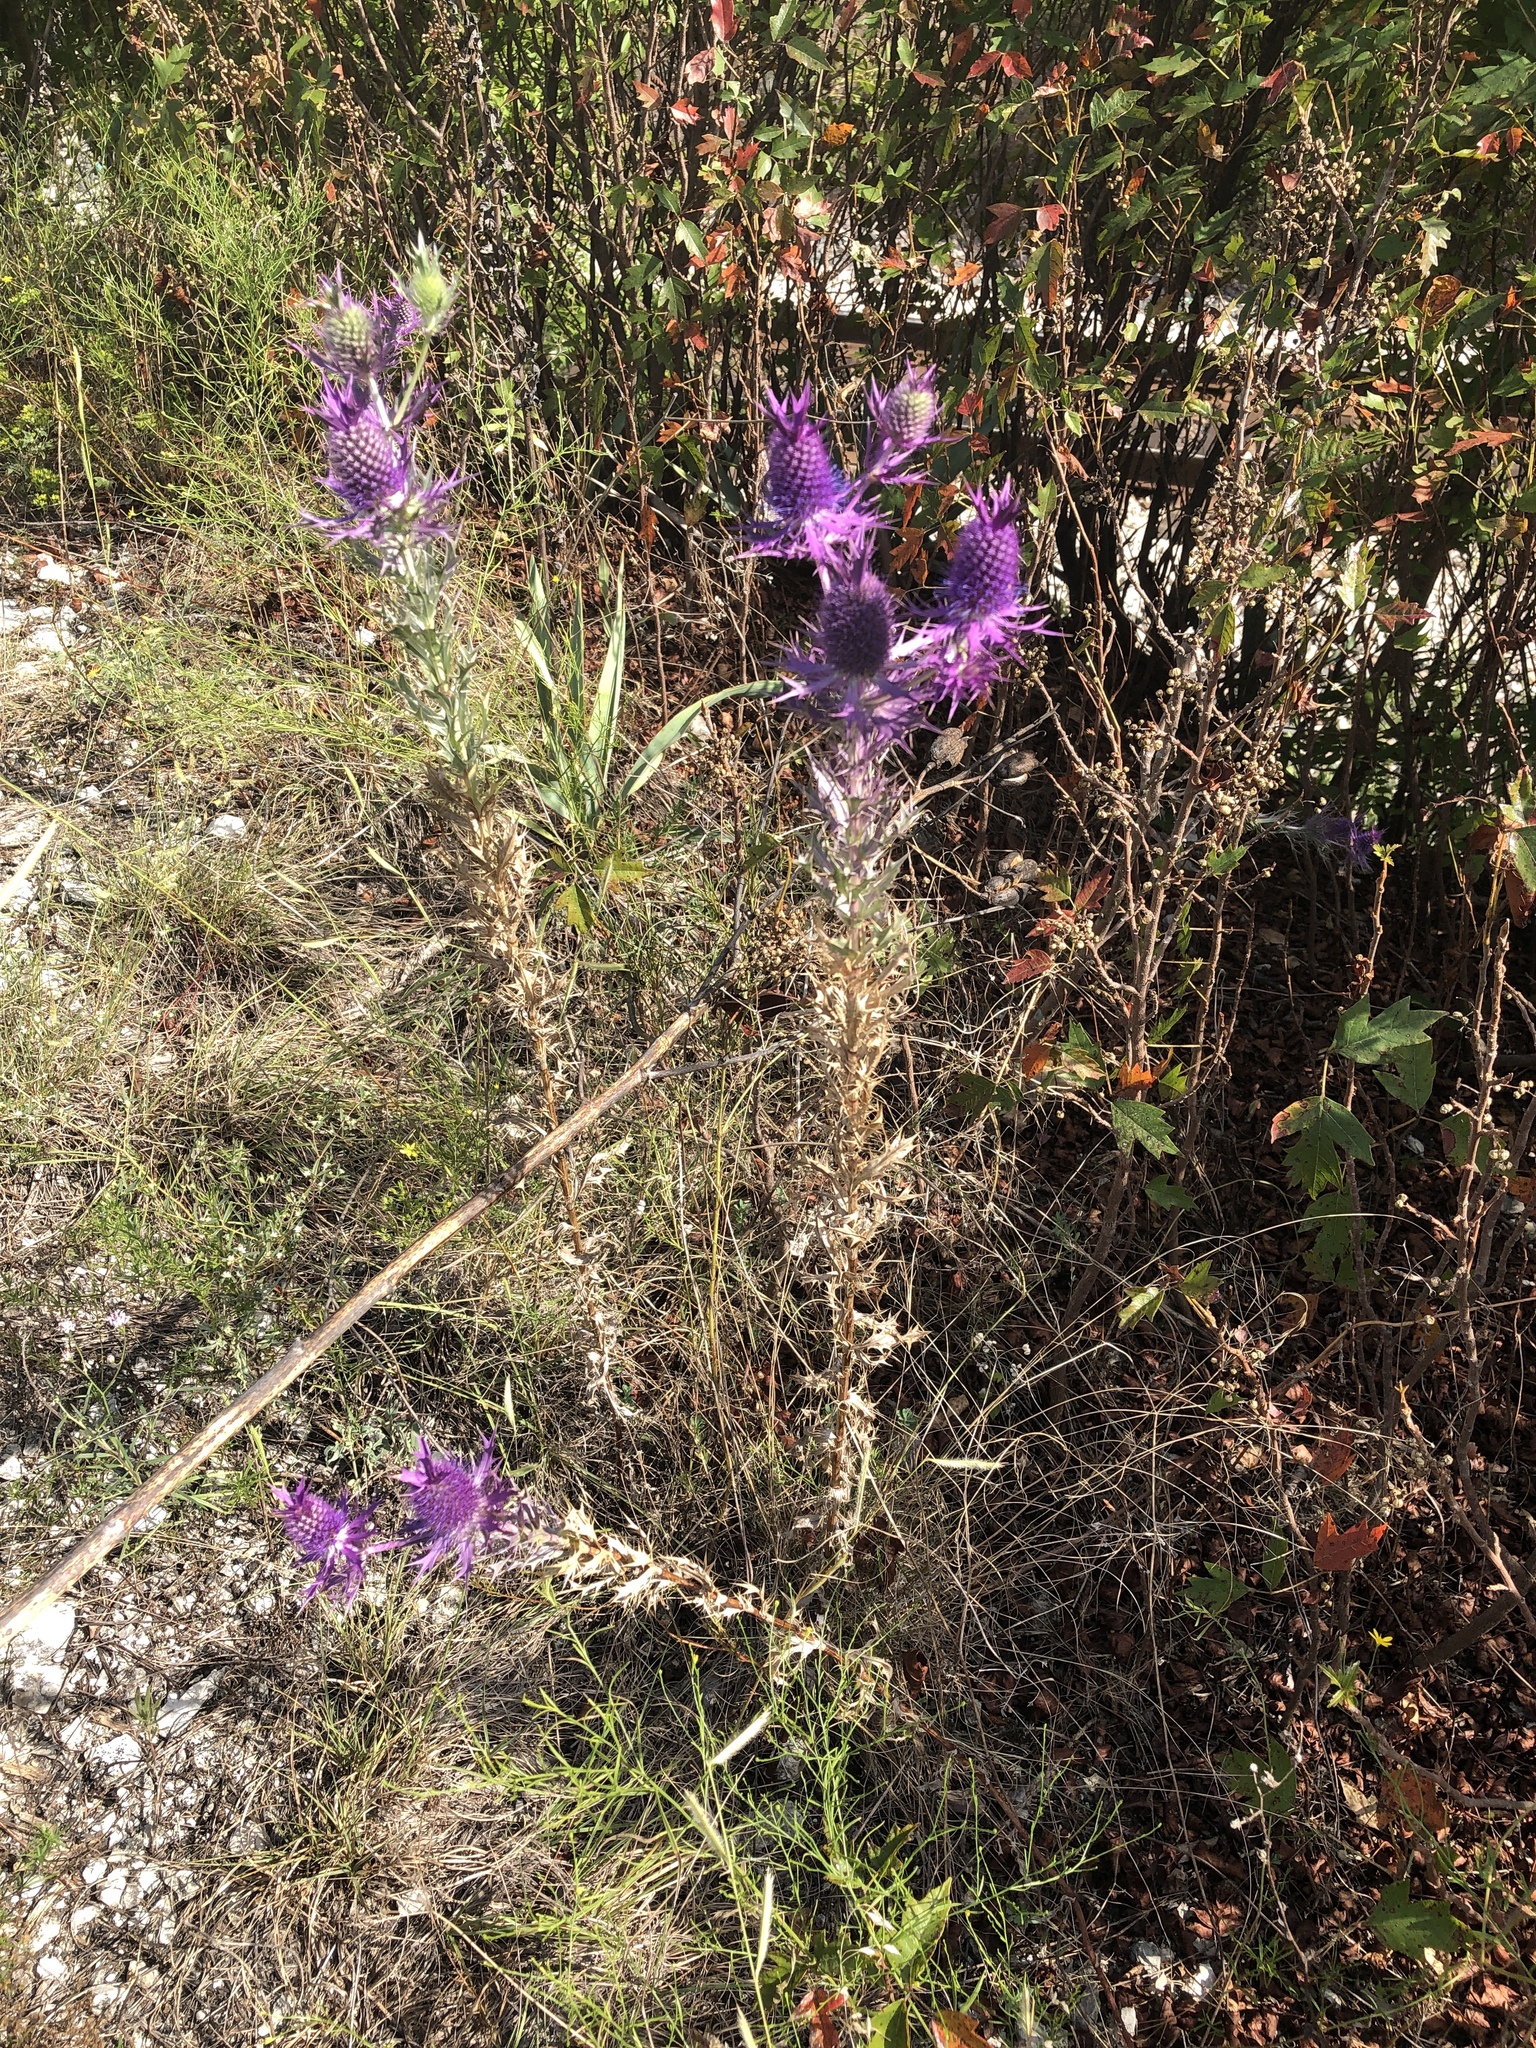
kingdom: Plantae
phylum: Tracheophyta
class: Magnoliopsida
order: Apiales
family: Apiaceae
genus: Eryngium
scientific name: Eryngium leavenworthii
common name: Leavenworth's eryngo
